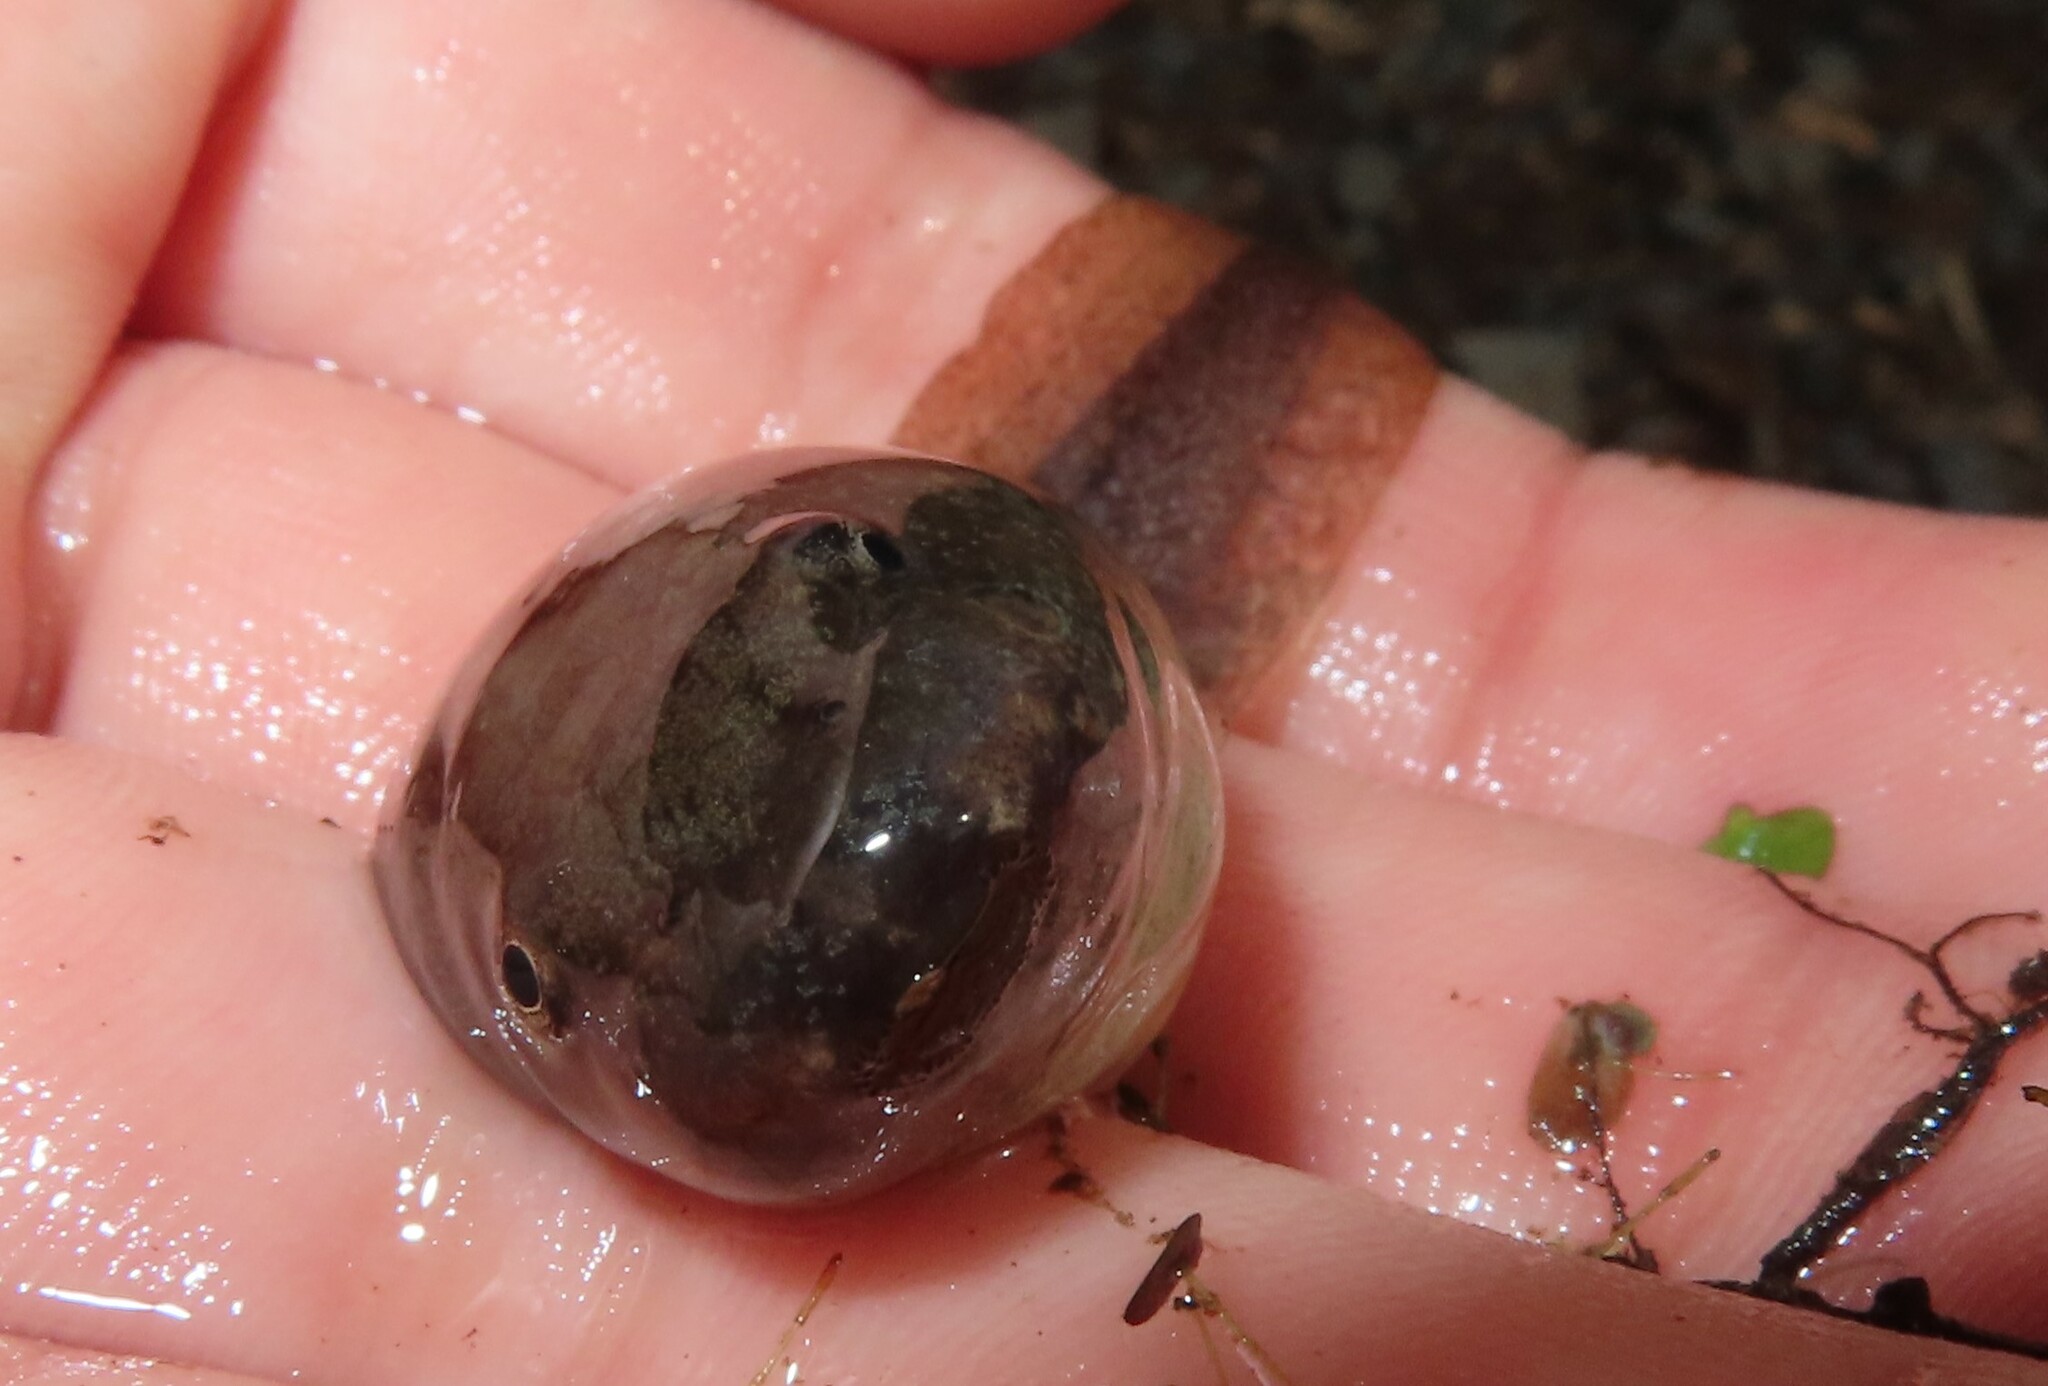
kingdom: Animalia
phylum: Chordata
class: Amphibia
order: Anura
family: Ranidae
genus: Lithobates
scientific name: Lithobates clamitans
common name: Green frog
